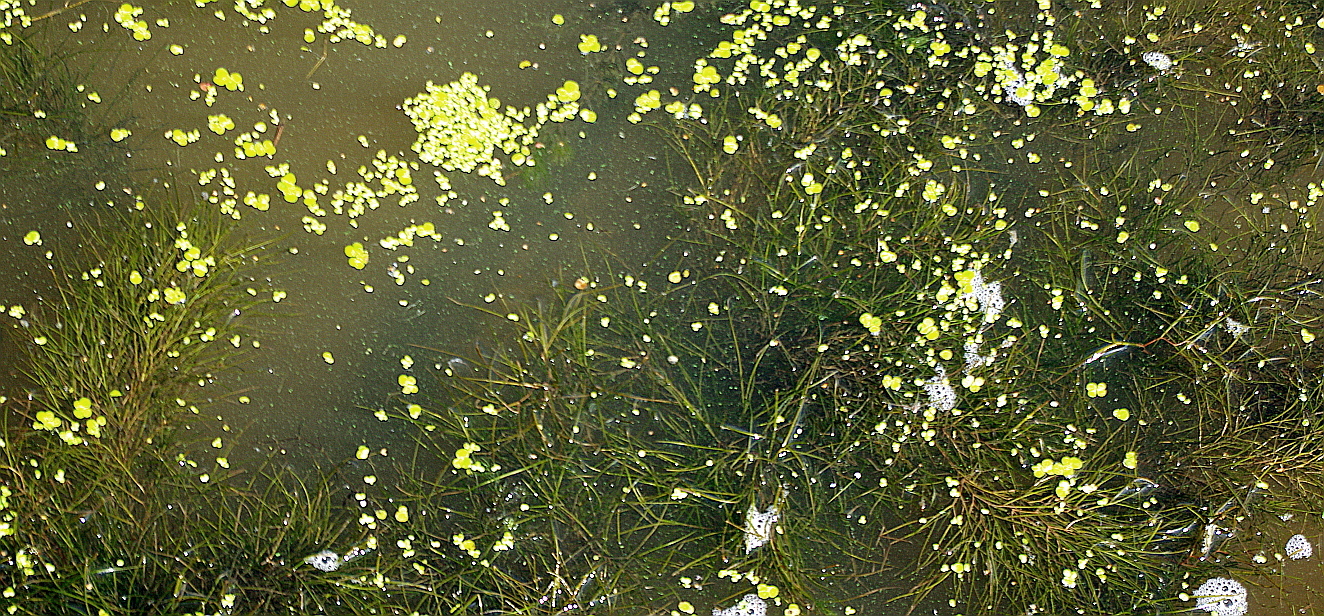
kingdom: Plantae
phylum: Tracheophyta
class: Liliopsida
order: Alismatales
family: Potamogetonaceae
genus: Stuckenia
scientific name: Stuckenia pectinata
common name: Sago pondweed
